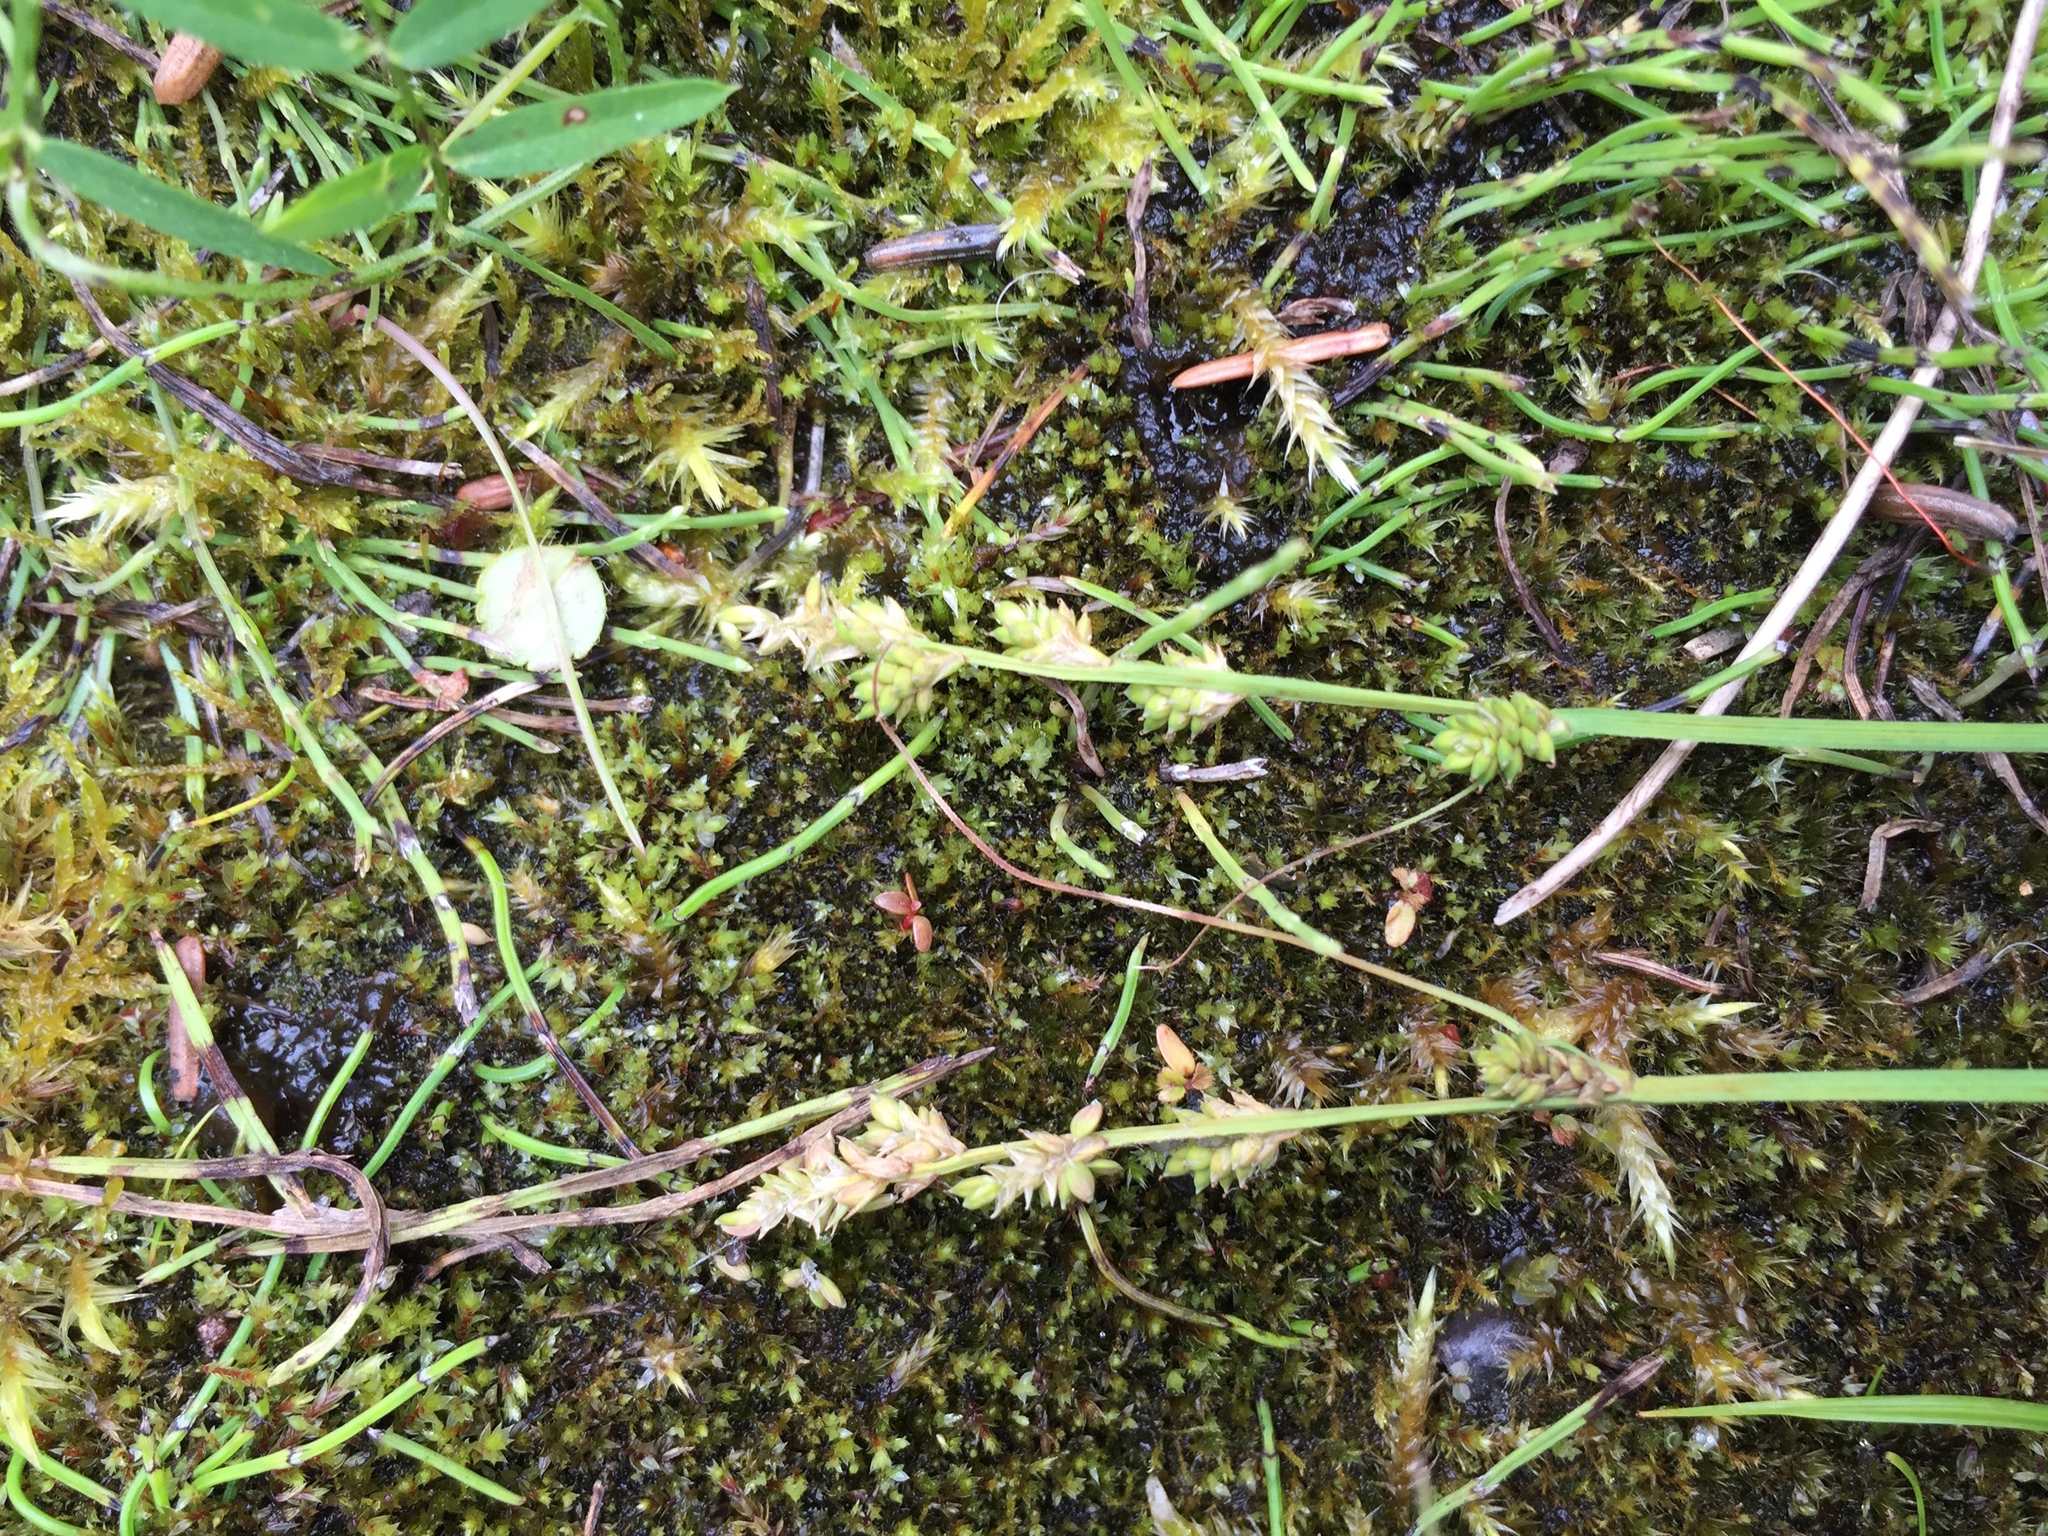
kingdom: Plantae
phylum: Tracheophyta
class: Liliopsida
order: Poales
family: Cyperaceae
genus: Carex
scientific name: Carex canescens
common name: White sedge
